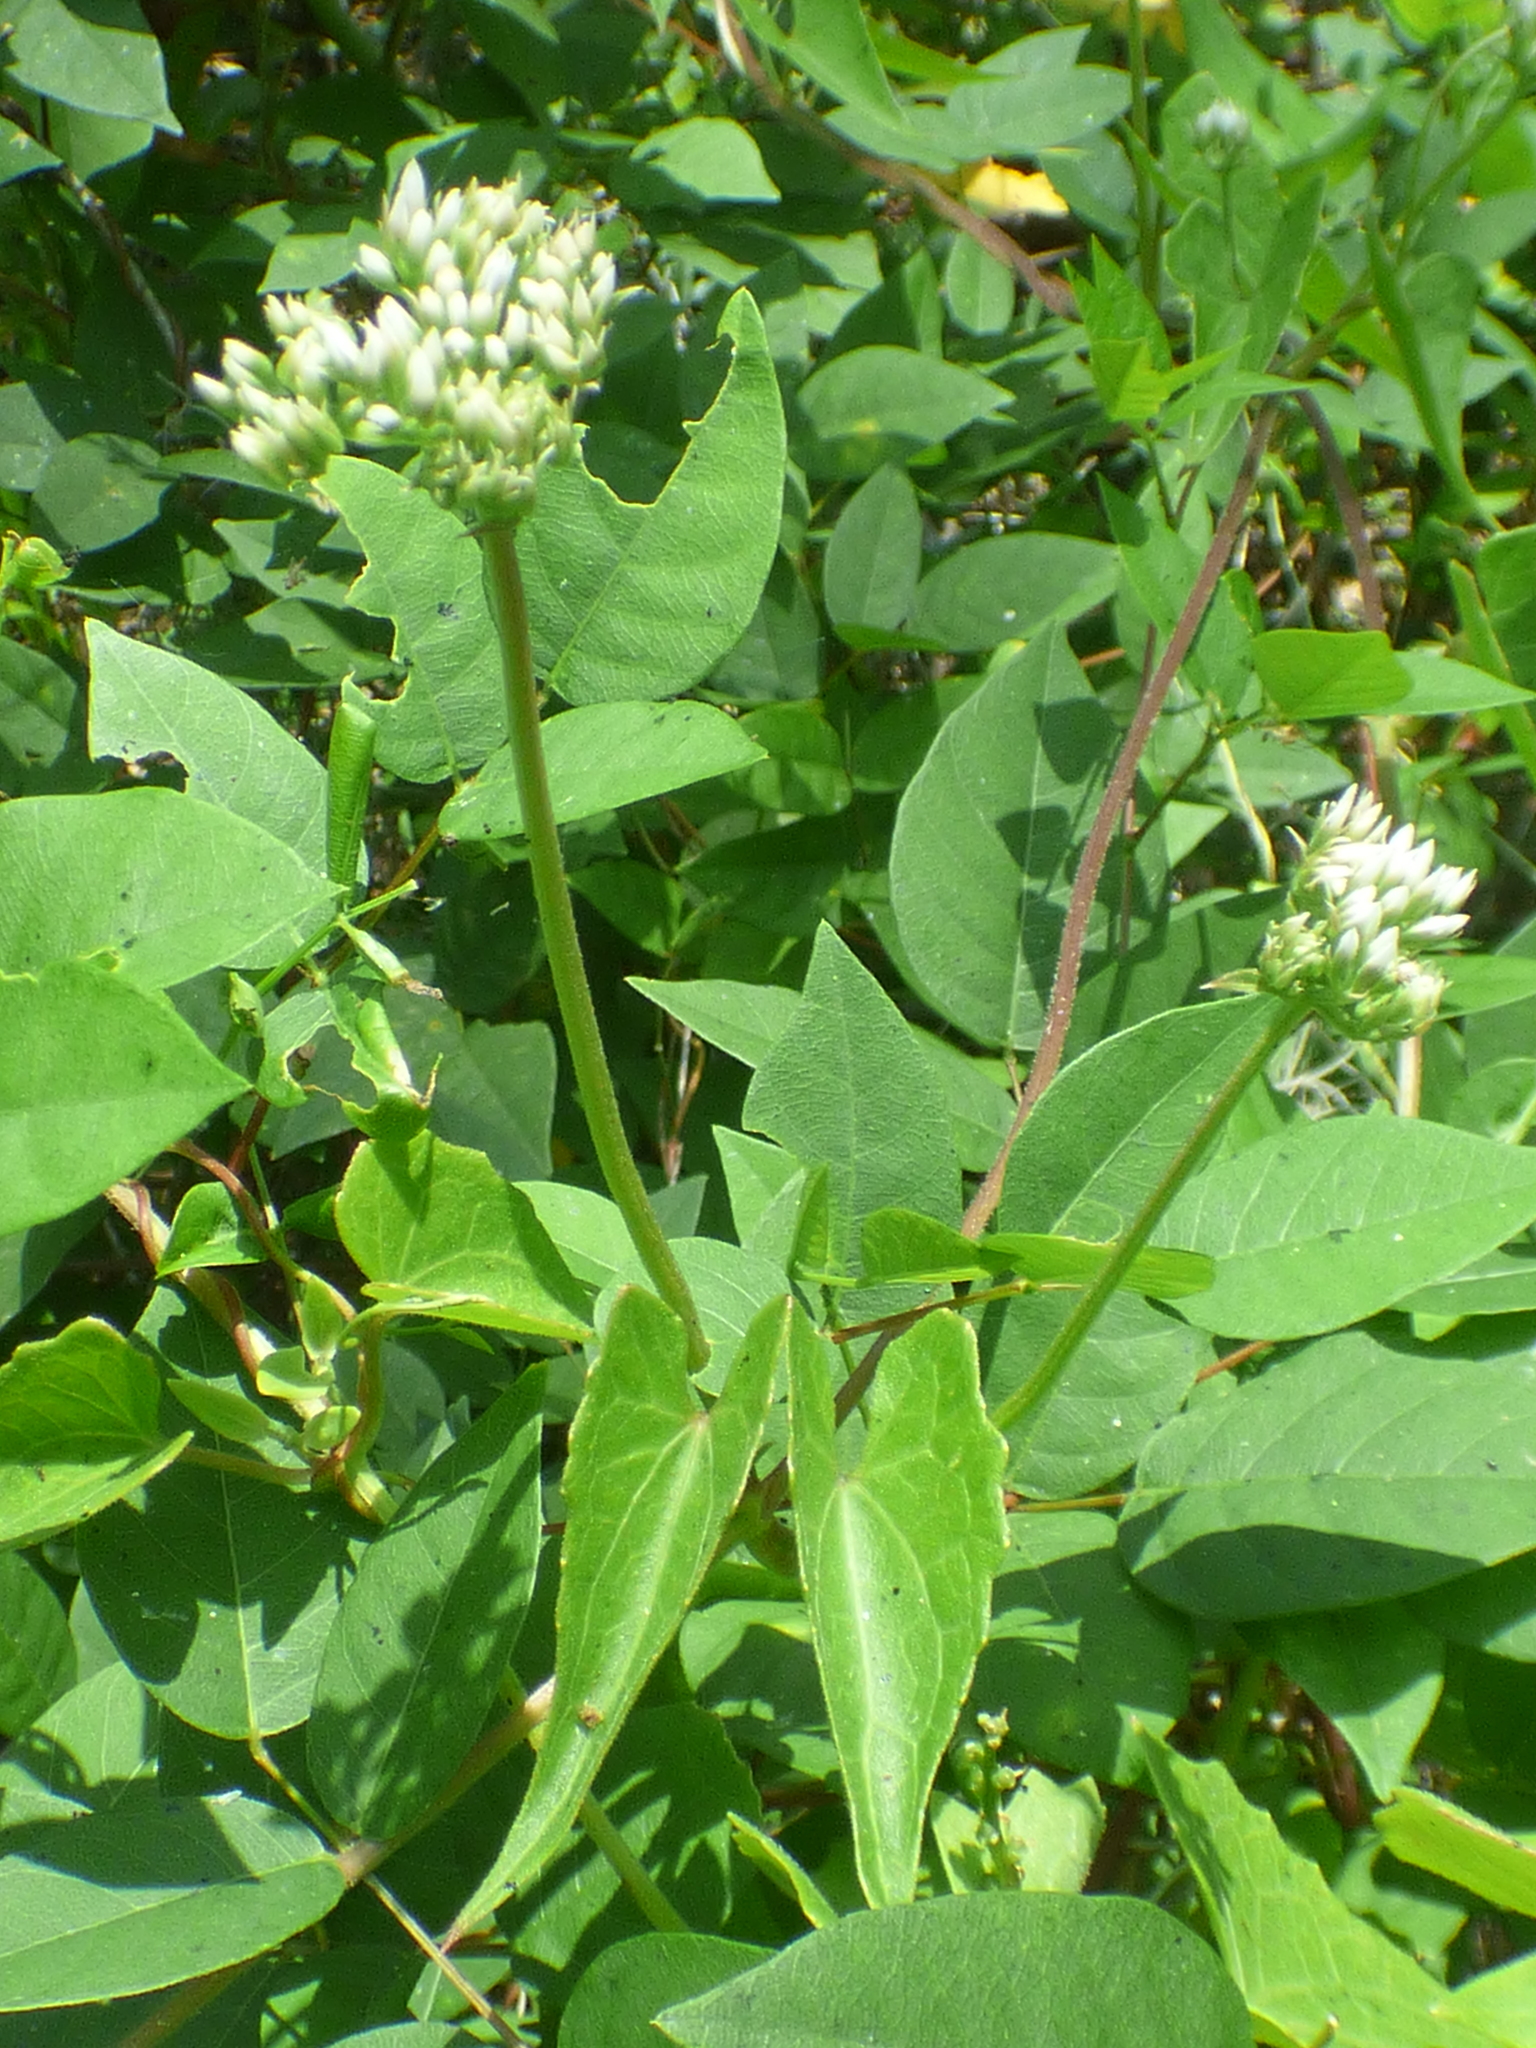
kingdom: Plantae
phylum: Tracheophyta
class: Magnoliopsida
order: Asterales
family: Asteraceae
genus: Mikania
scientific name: Mikania scandens
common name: Climbing hempvine
